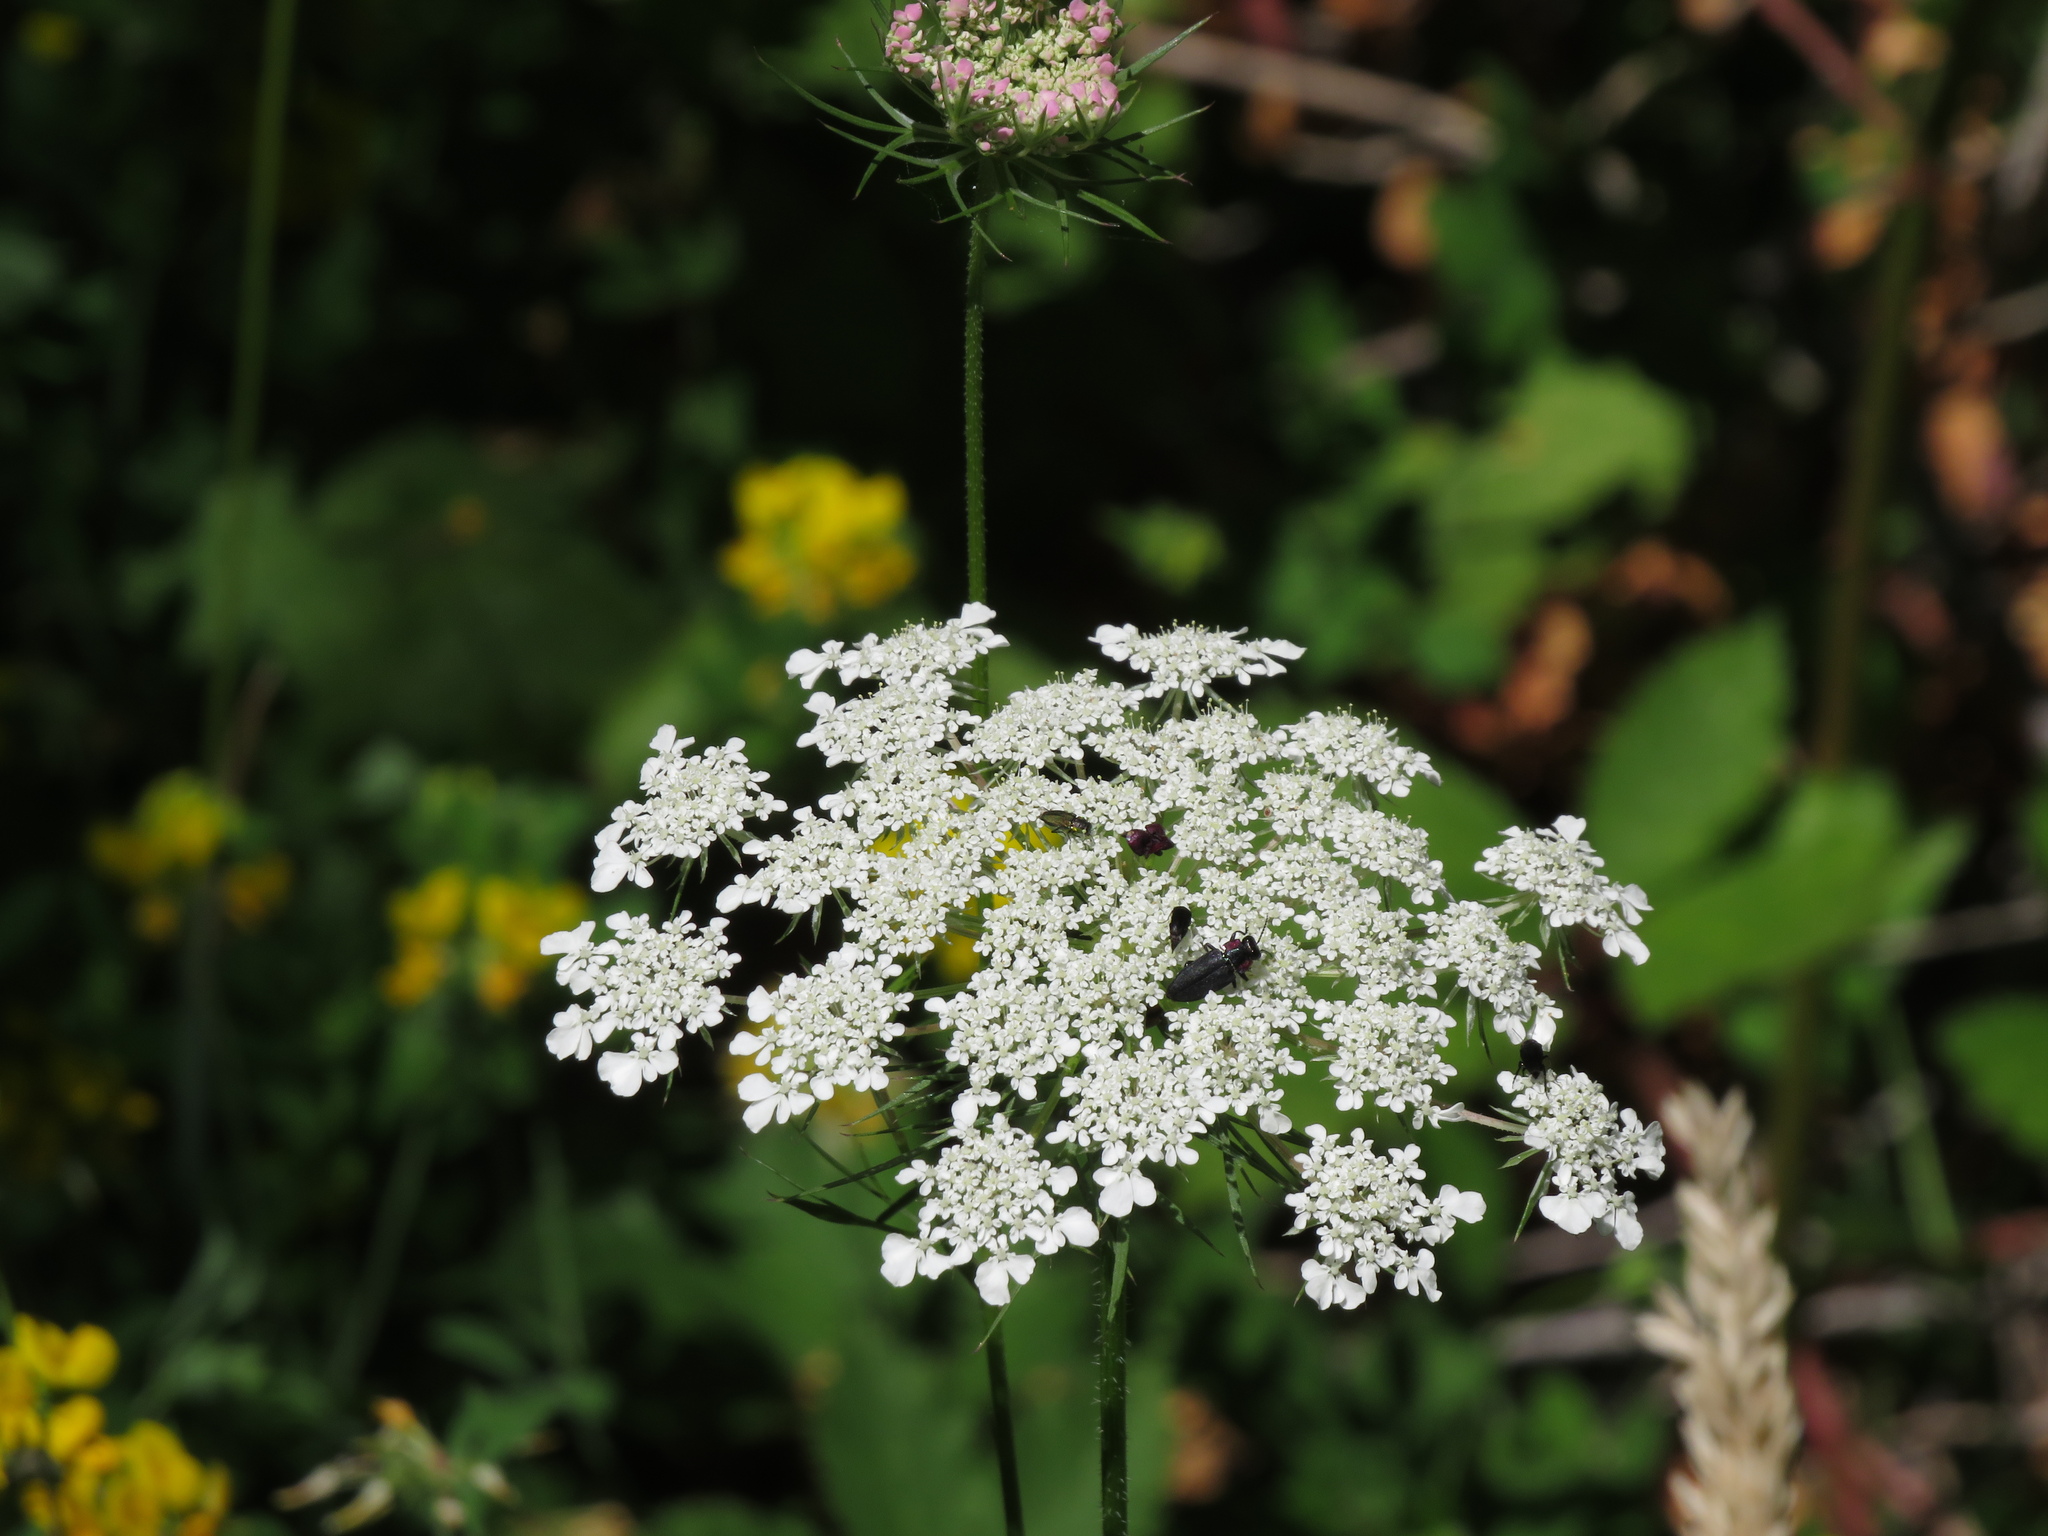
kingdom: Plantae
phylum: Tracheophyta
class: Magnoliopsida
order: Apiales
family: Apiaceae
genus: Daucus
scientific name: Daucus carota
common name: Wild carrot
